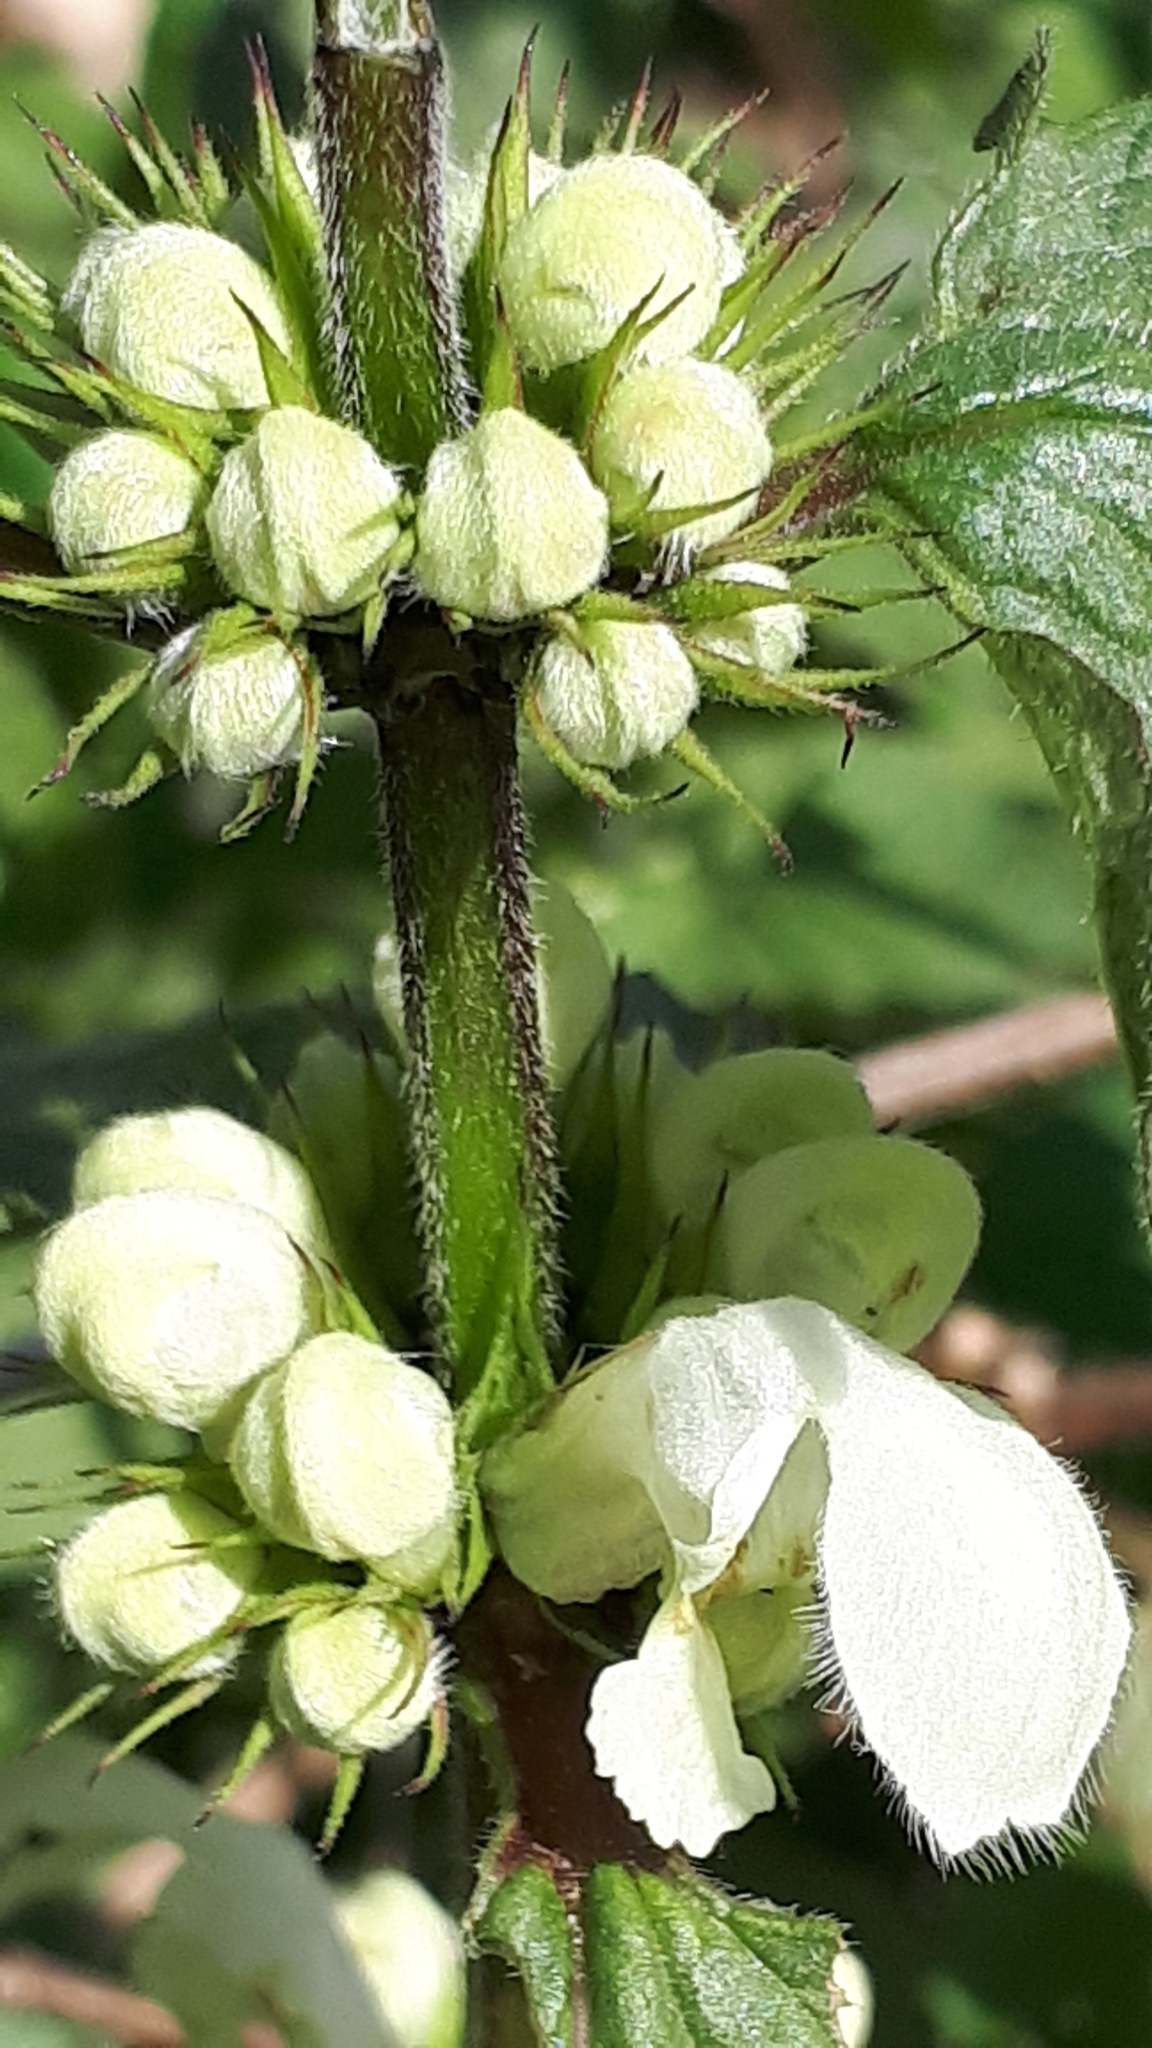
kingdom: Plantae
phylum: Tracheophyta
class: Magnoliopsida
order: Lamiales
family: Lamiaceae
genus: Lamium
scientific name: Lamium album
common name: White dead-nettle
